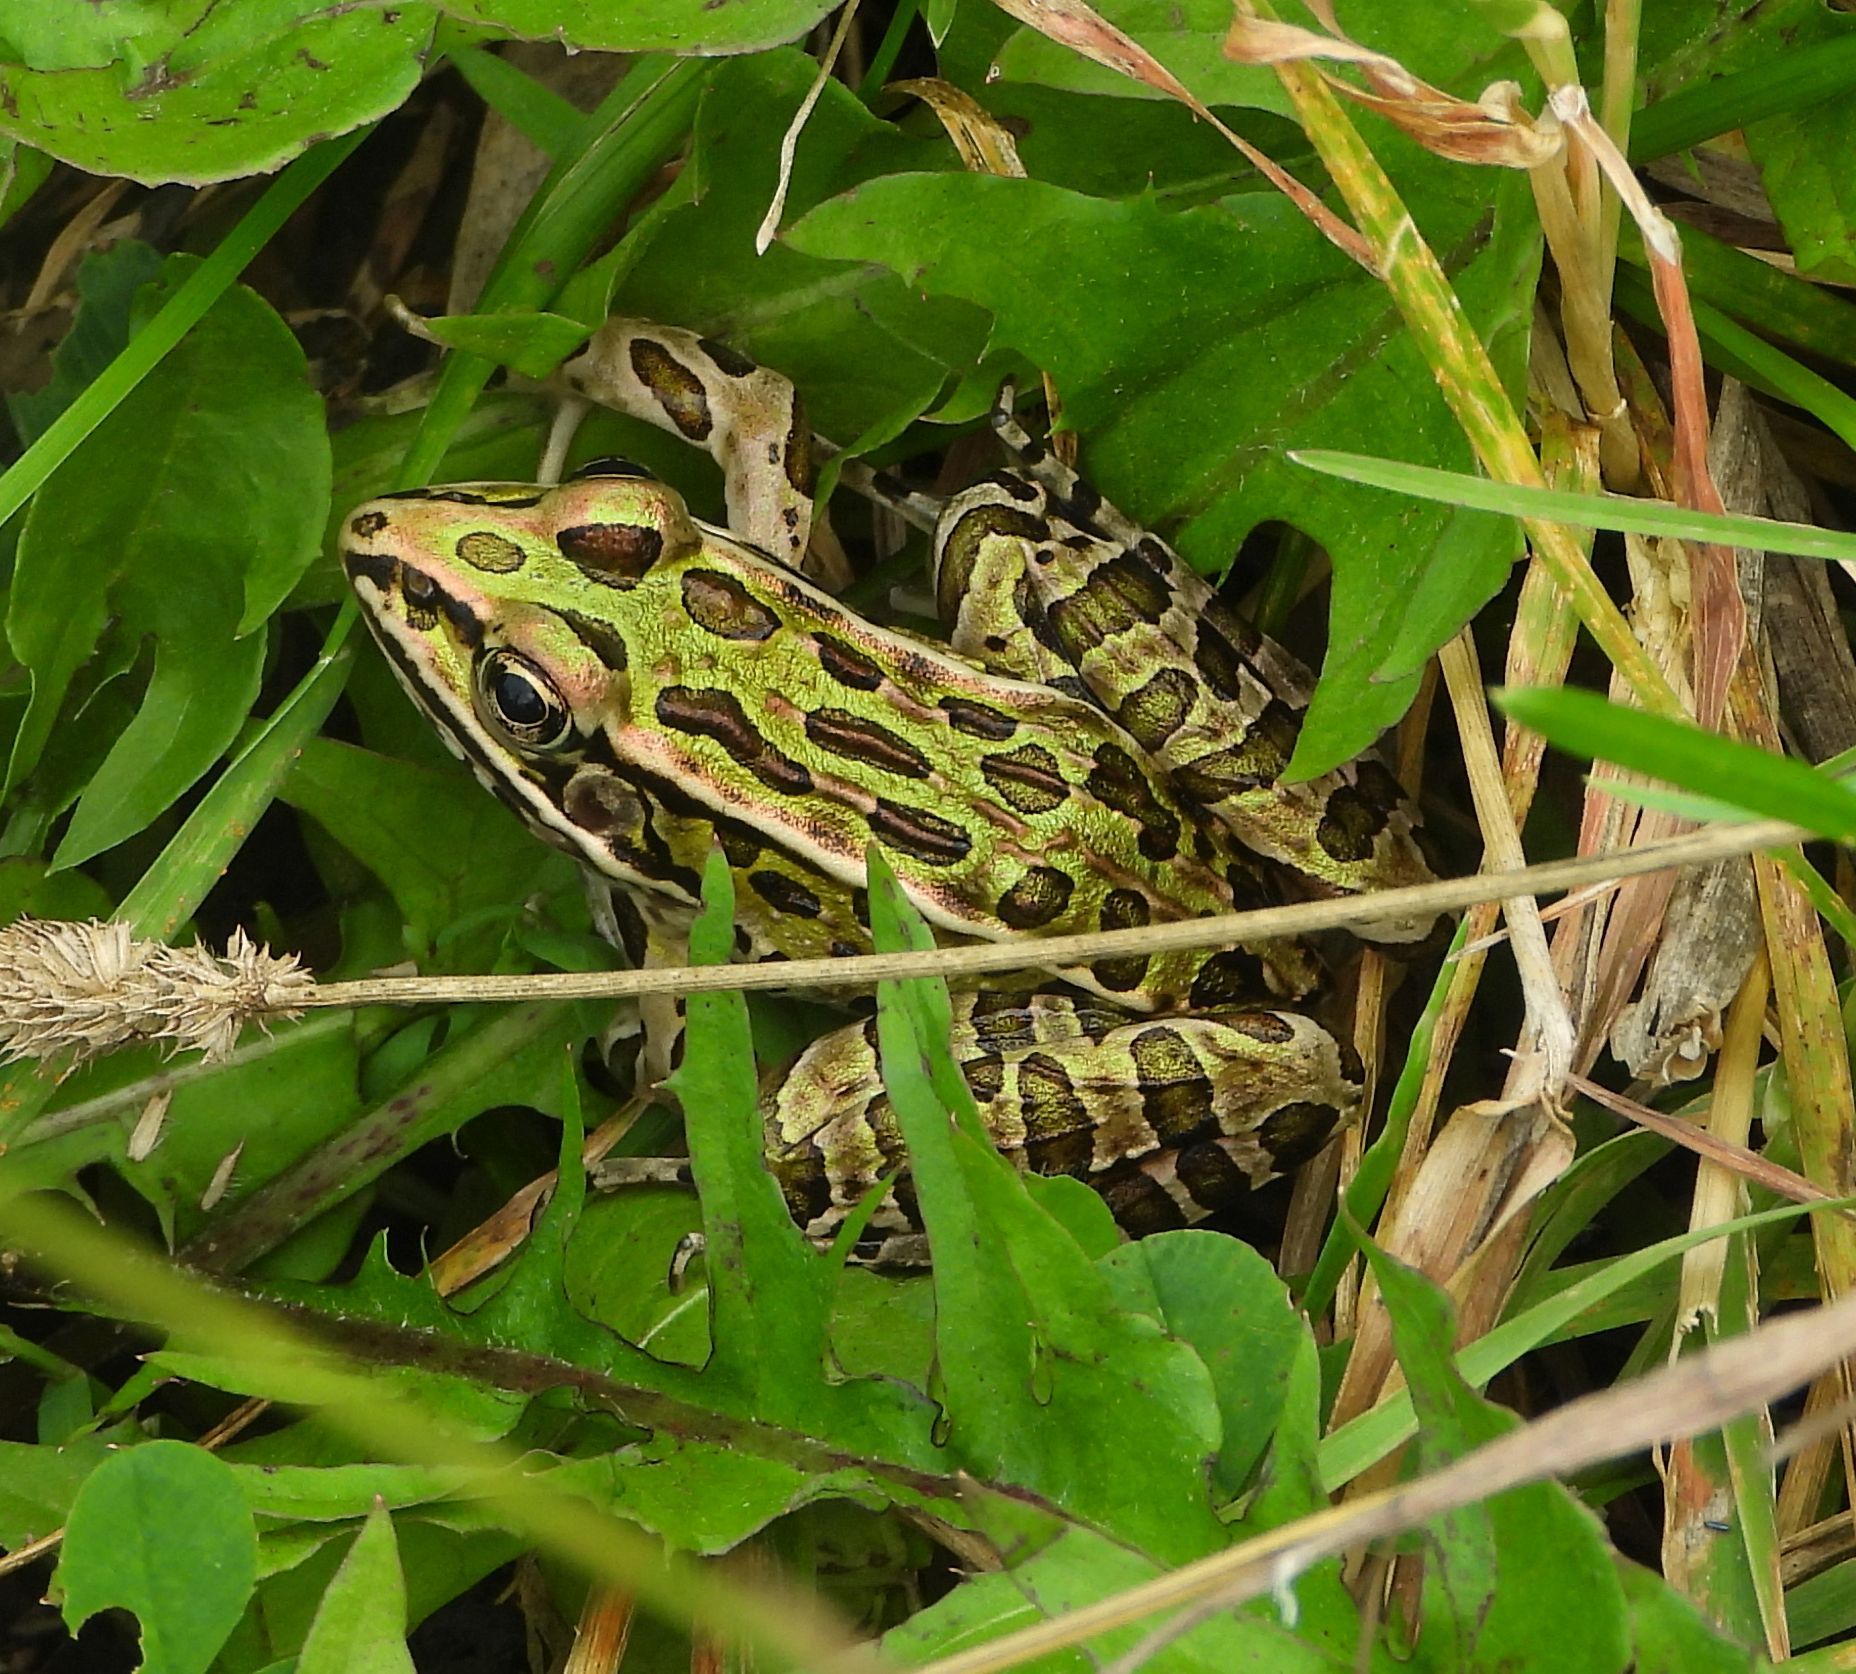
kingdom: Animalia
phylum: Chordata
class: Amphibia
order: Anura
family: Ranidae
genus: Lithobates
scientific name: Lithobates pipiens
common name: Northern leopard frog
